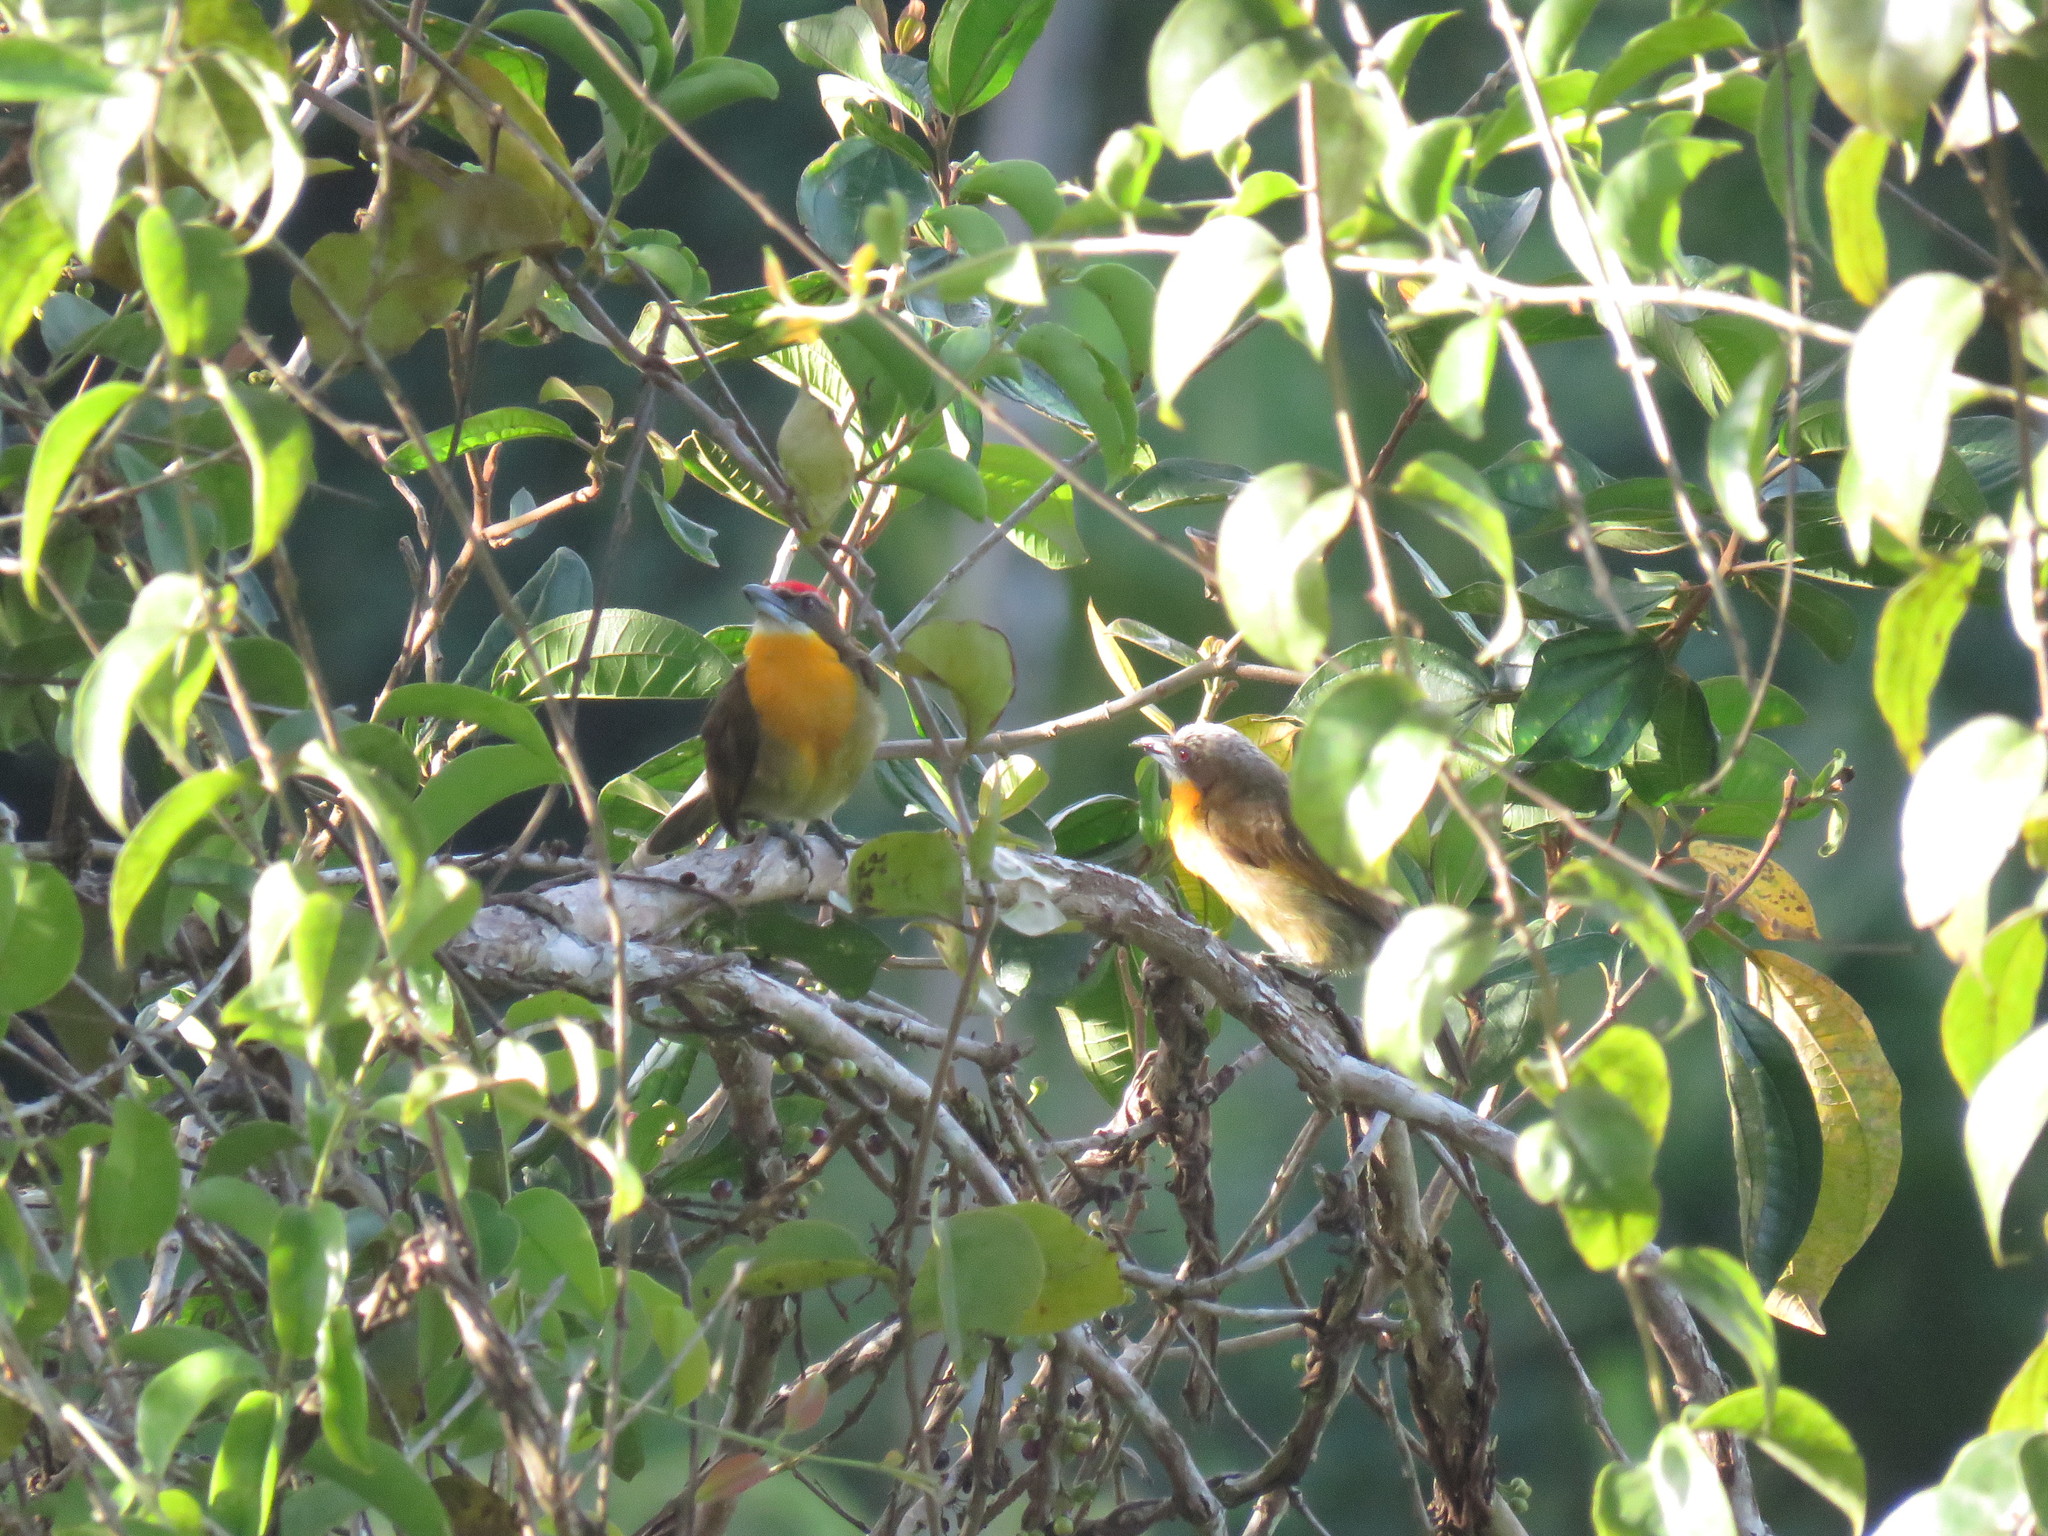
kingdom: Animalia
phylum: Chordata
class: Aves
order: Piciformes
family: Capitonidae
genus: Capito
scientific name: Capito aurovirens
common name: Scarlet-crowned barbet
